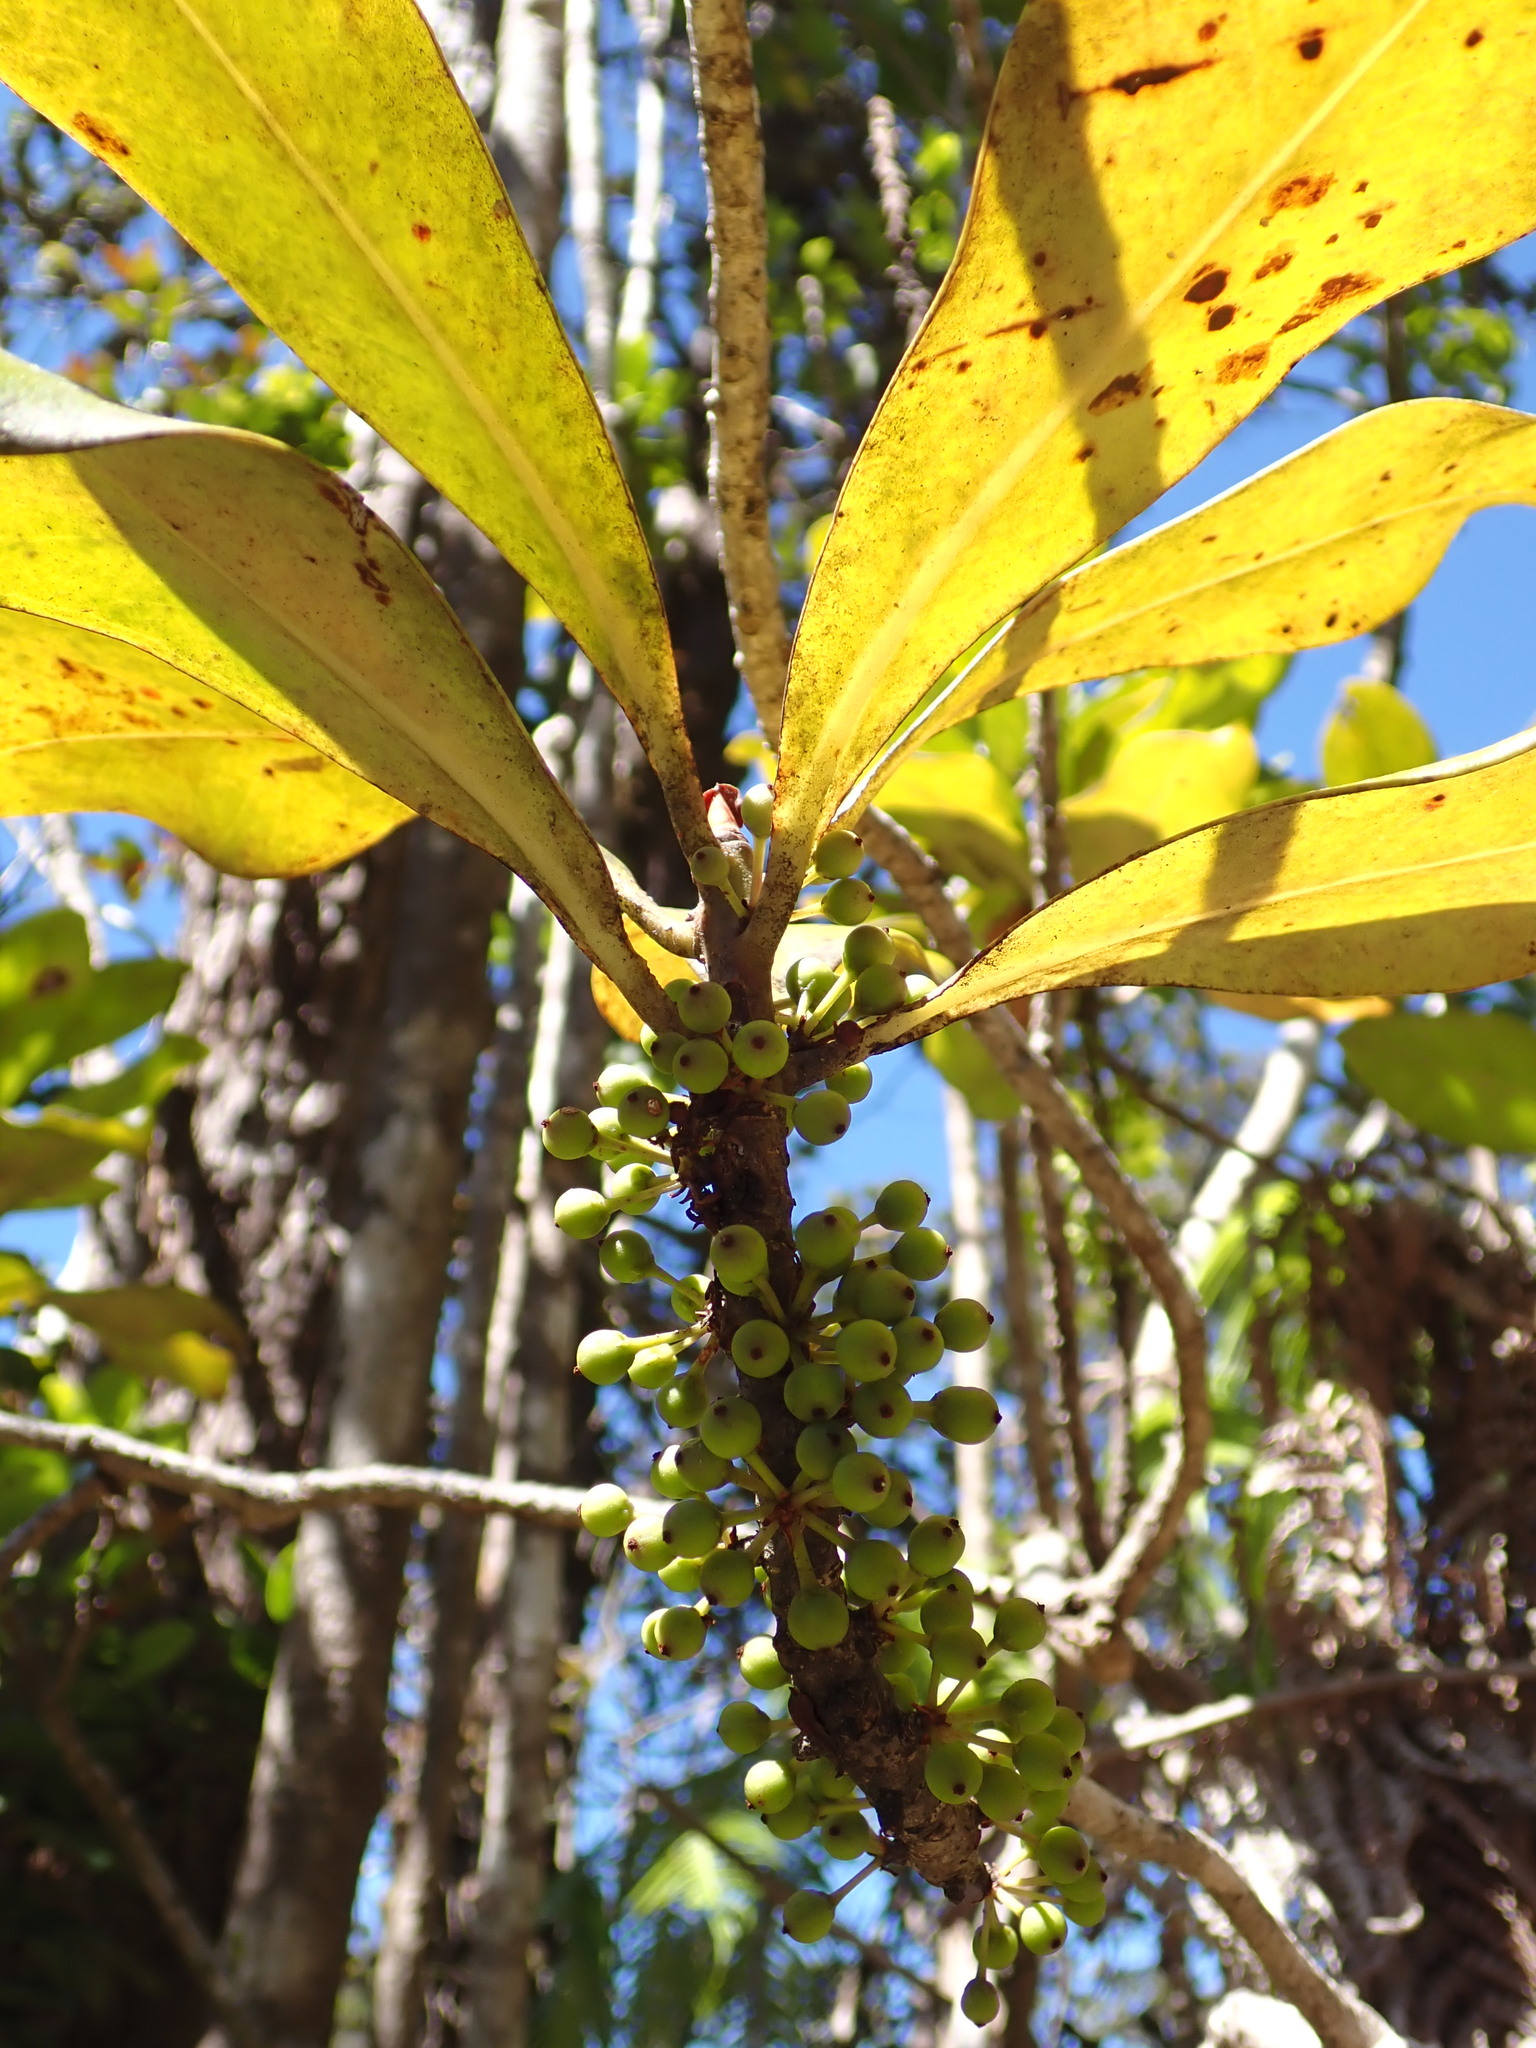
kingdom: Plantae
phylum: Tracheophyta
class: Magnoliopsida
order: Ericales
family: Primulaceae
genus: Myrsine
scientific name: Myrsine lessertiana
